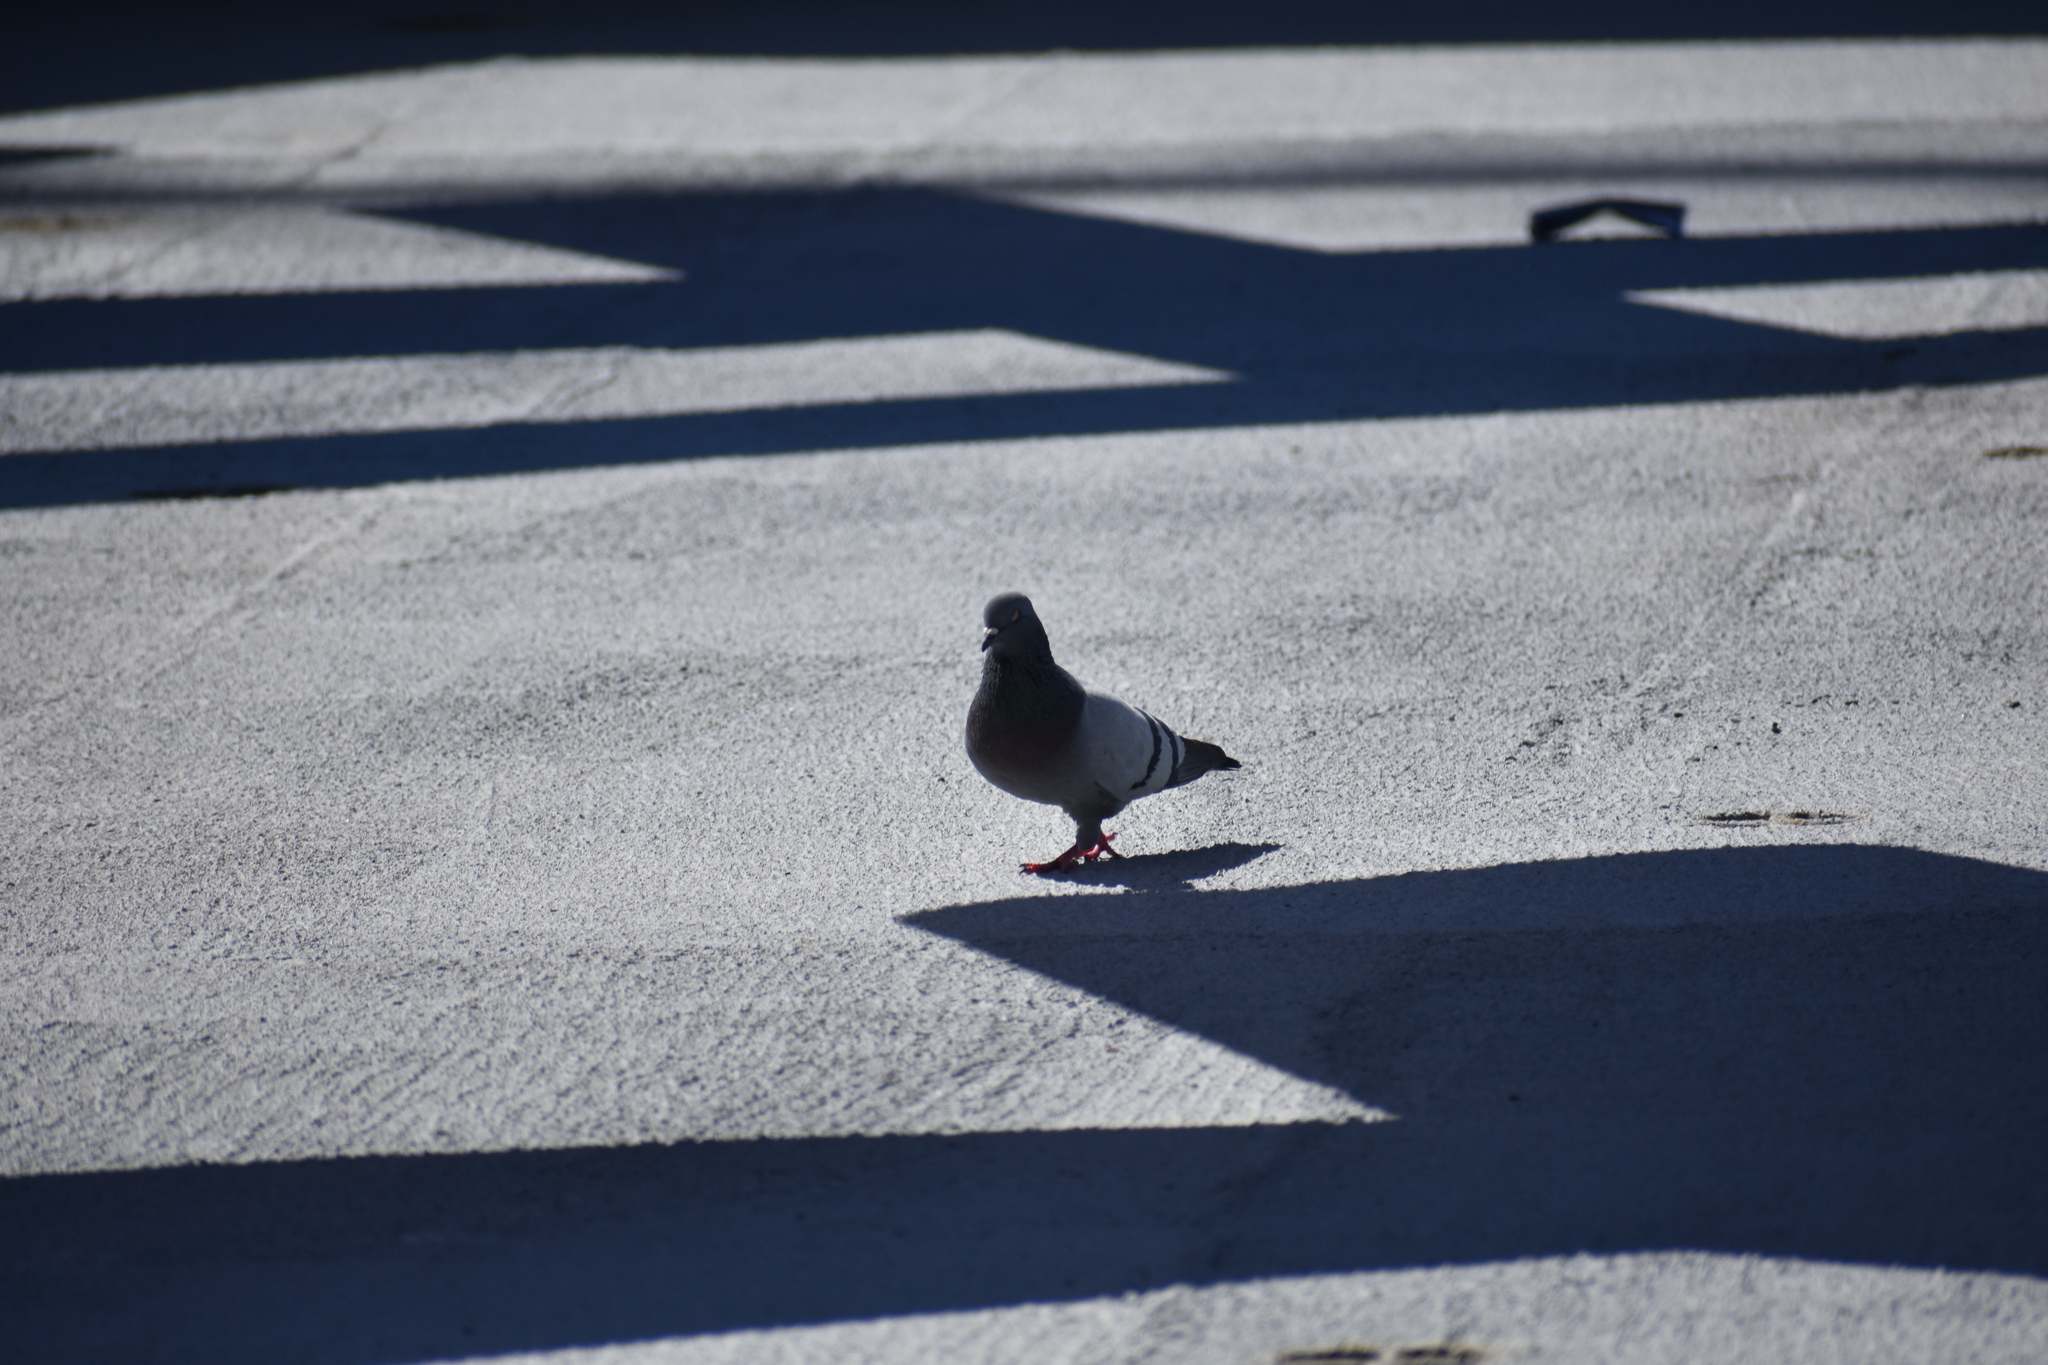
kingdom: Animalia
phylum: Chordata
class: Aves
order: Columbiformes
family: Columbidae
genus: Columba
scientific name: Columba livia
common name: Rock pigeon
